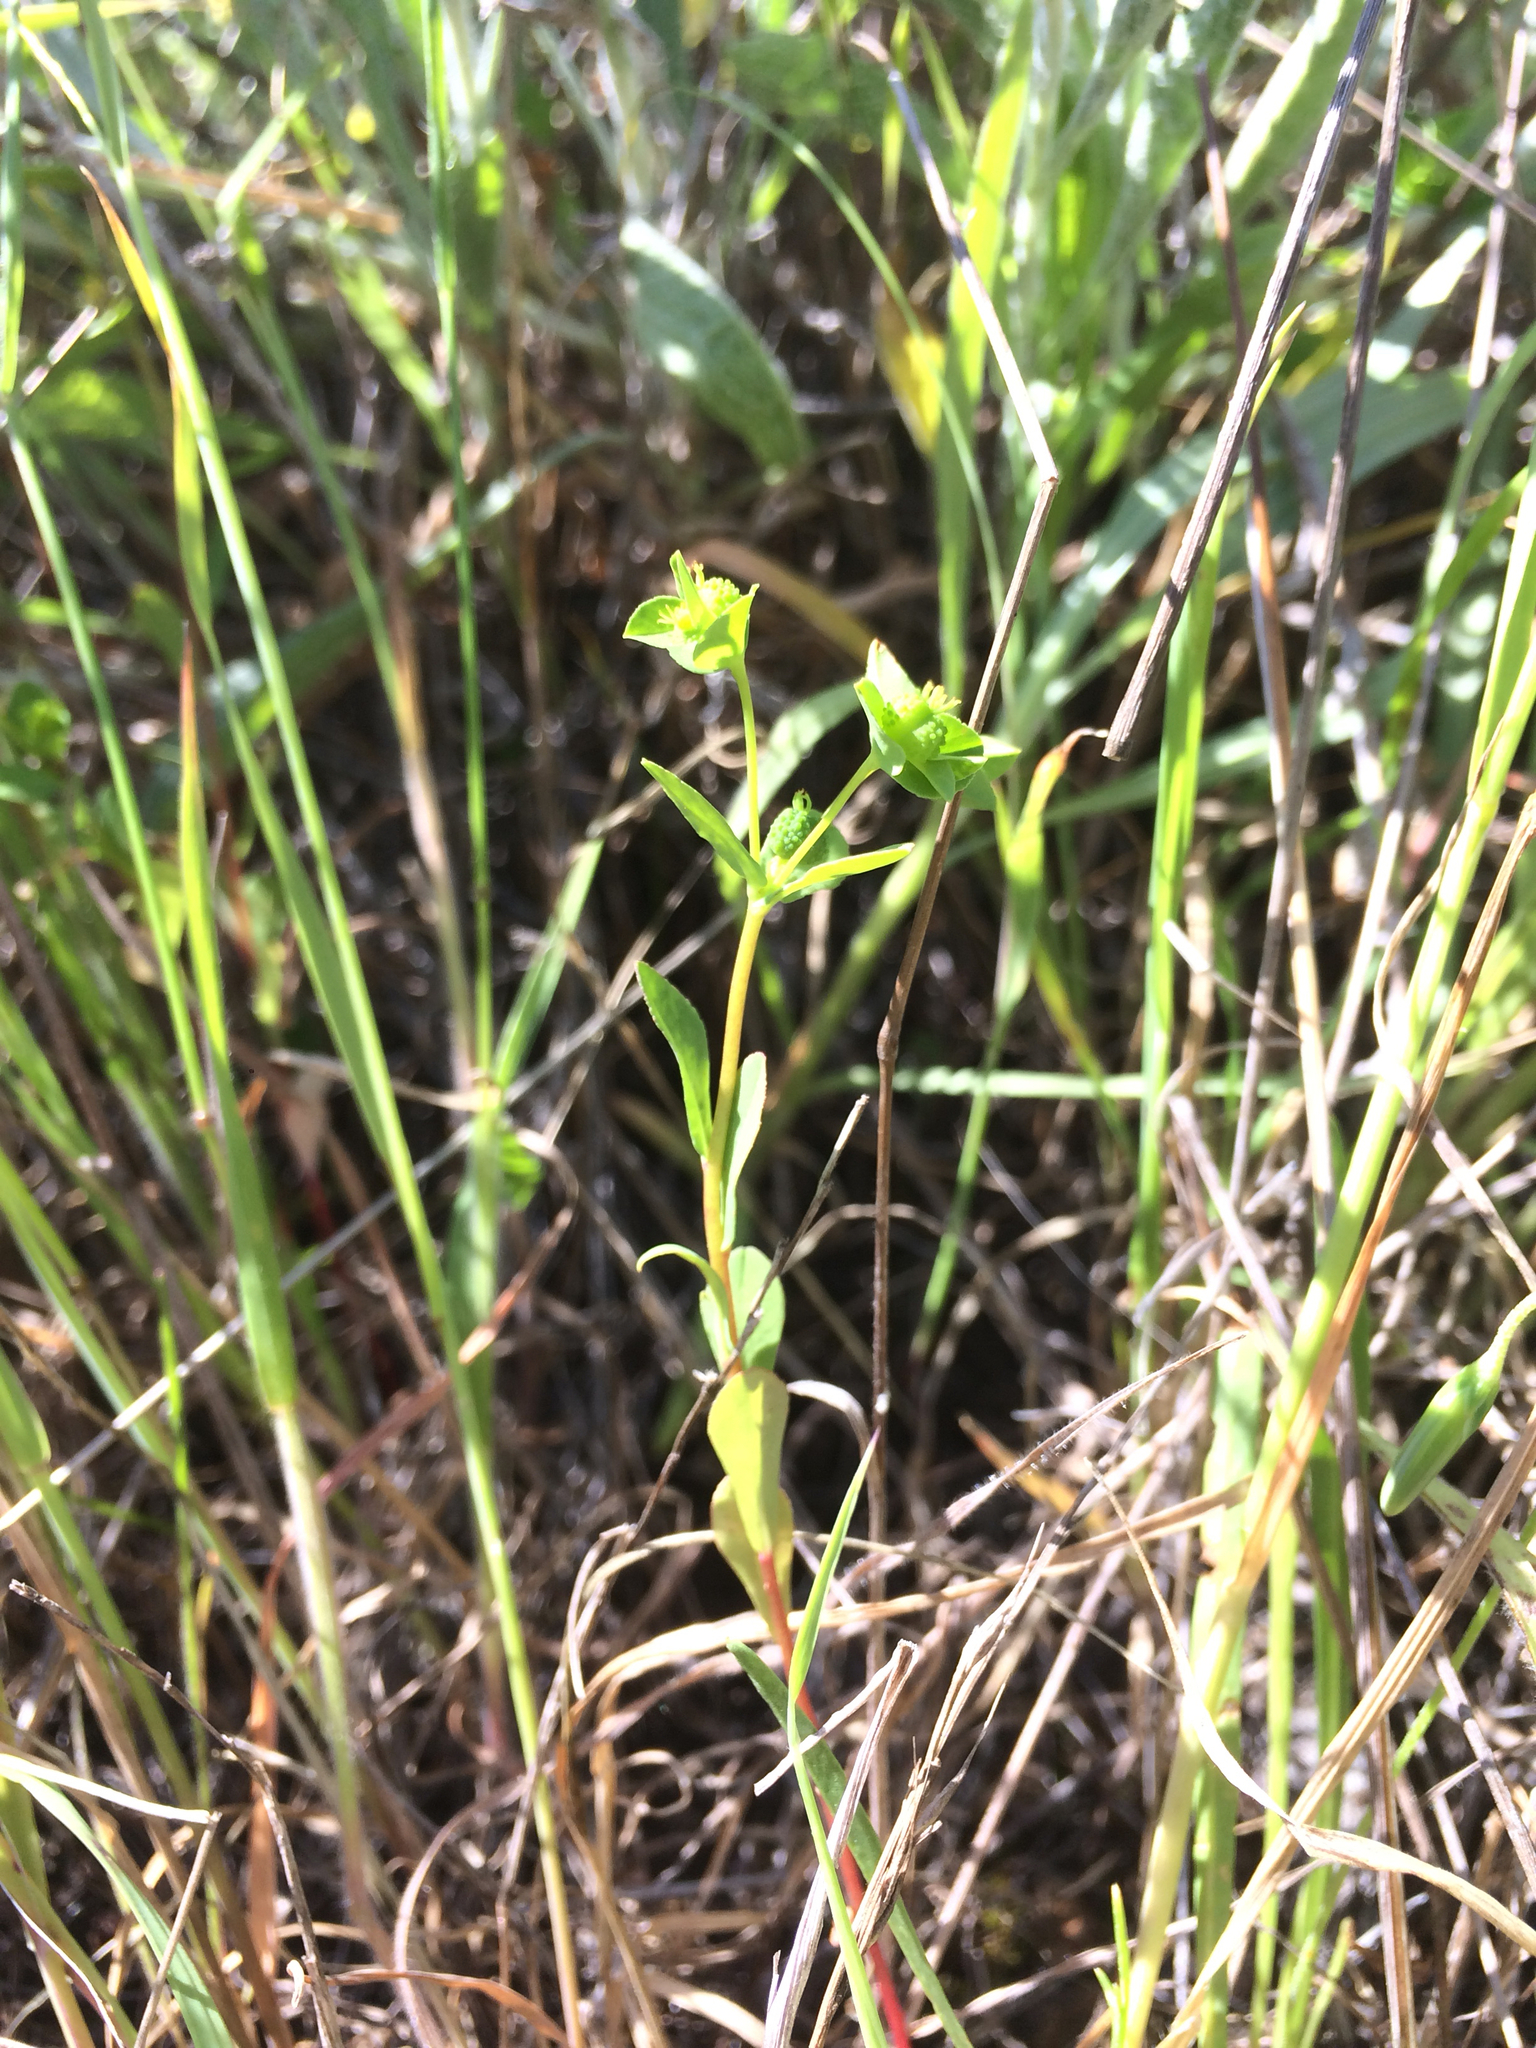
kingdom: Plantae
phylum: Tracheophyta
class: Magnoliopsida
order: Malpighiales
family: Euphorbiaceae
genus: Euphorbia
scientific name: Euphorbia spathulata
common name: Blunt spurge
